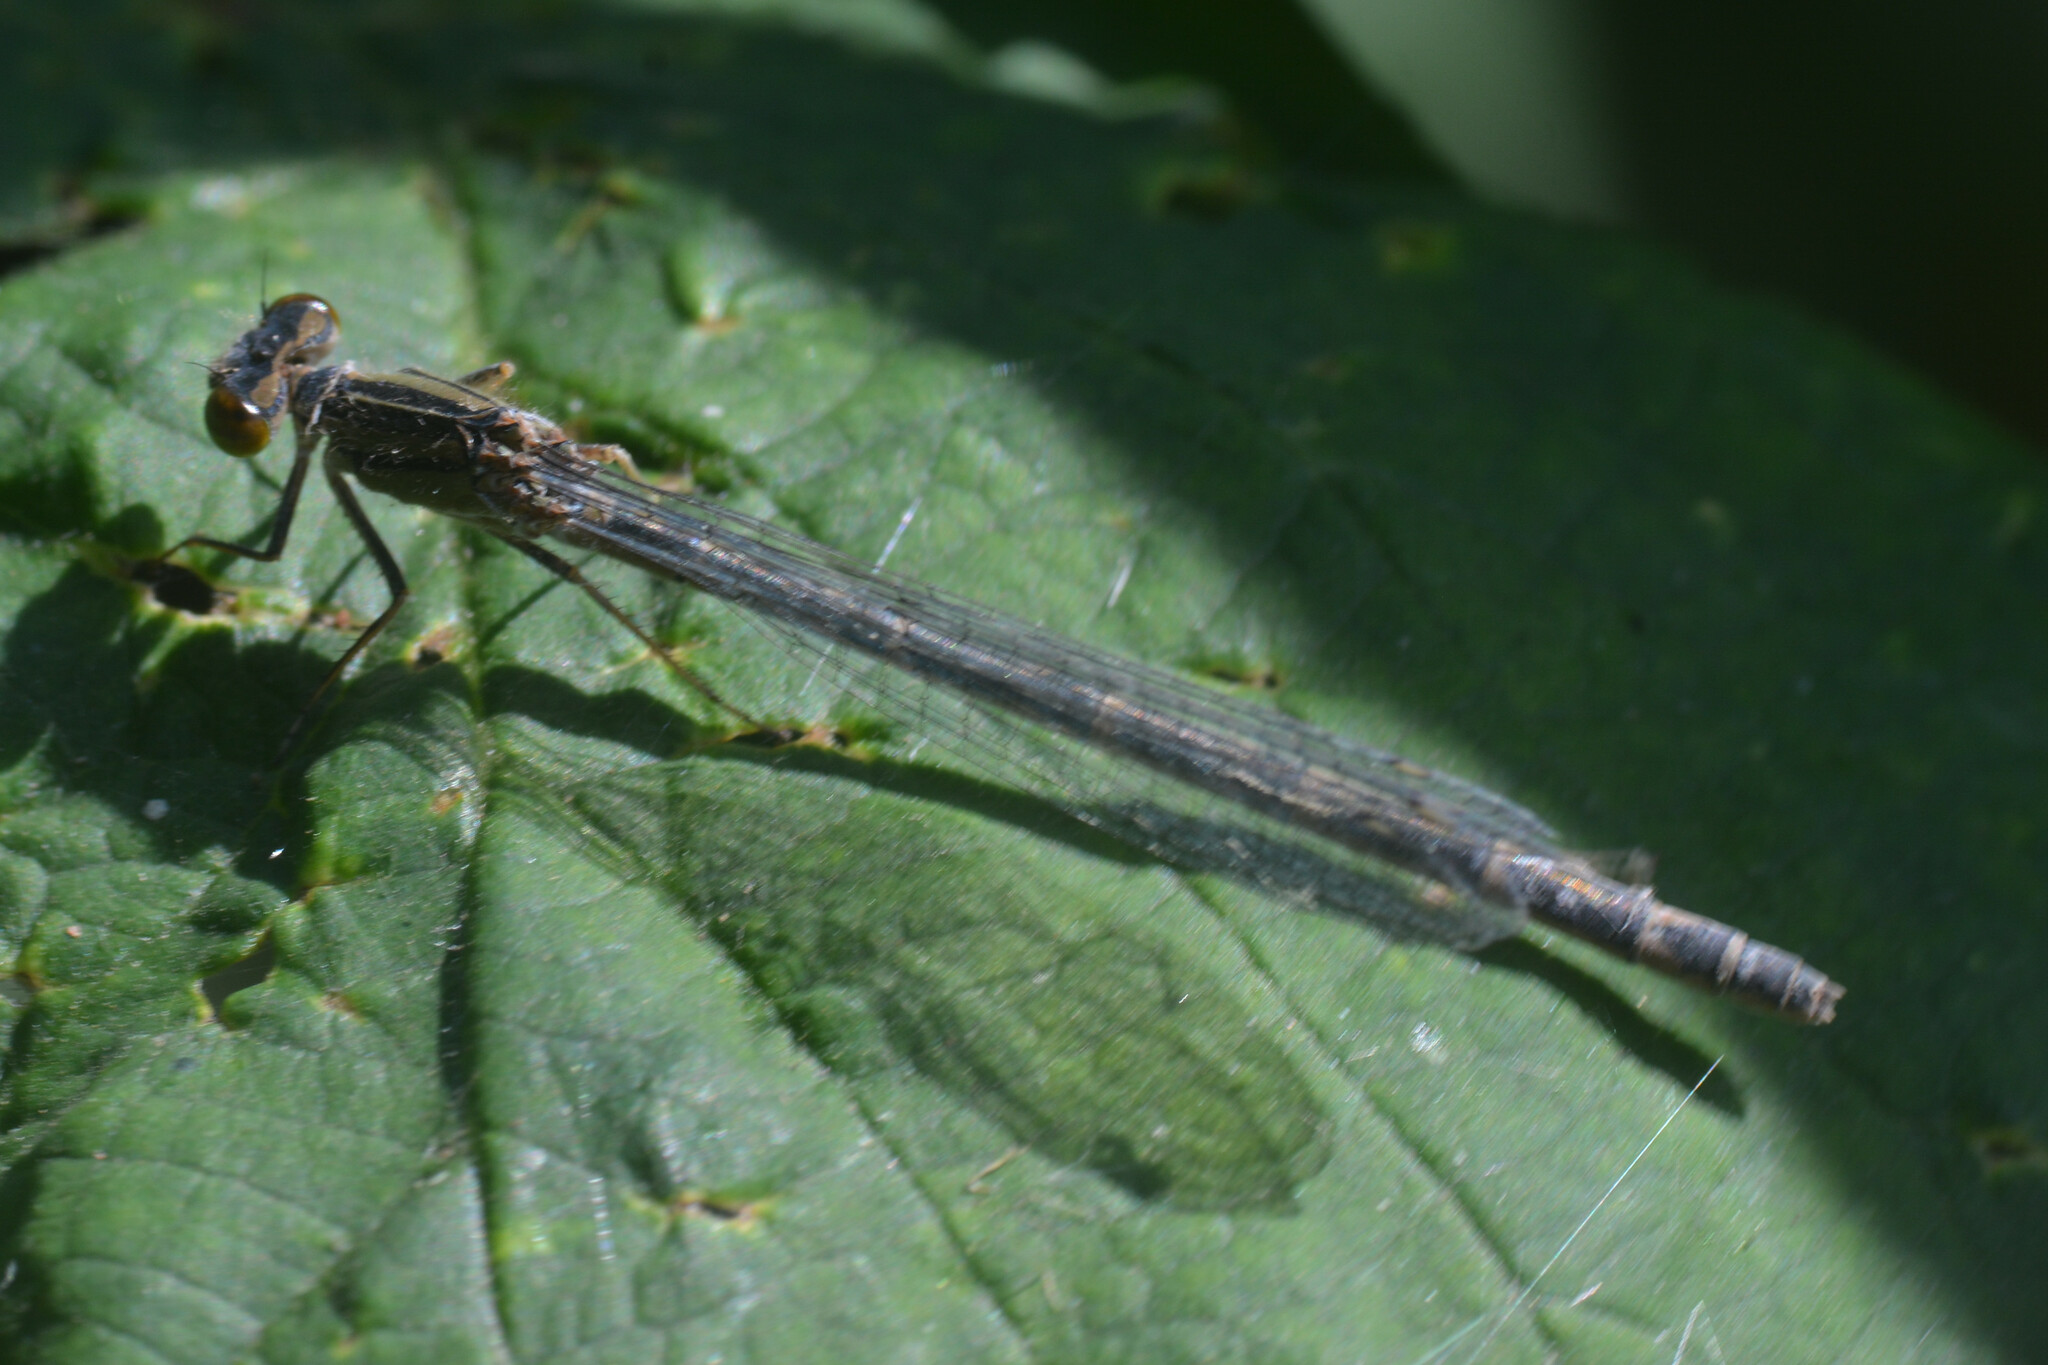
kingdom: Animalia
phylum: Arthropoda
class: Insecta
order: Odonata
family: Coenagrionidae
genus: Enallagma
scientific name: Enallagma cyathigerum
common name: Common blue damselfly
